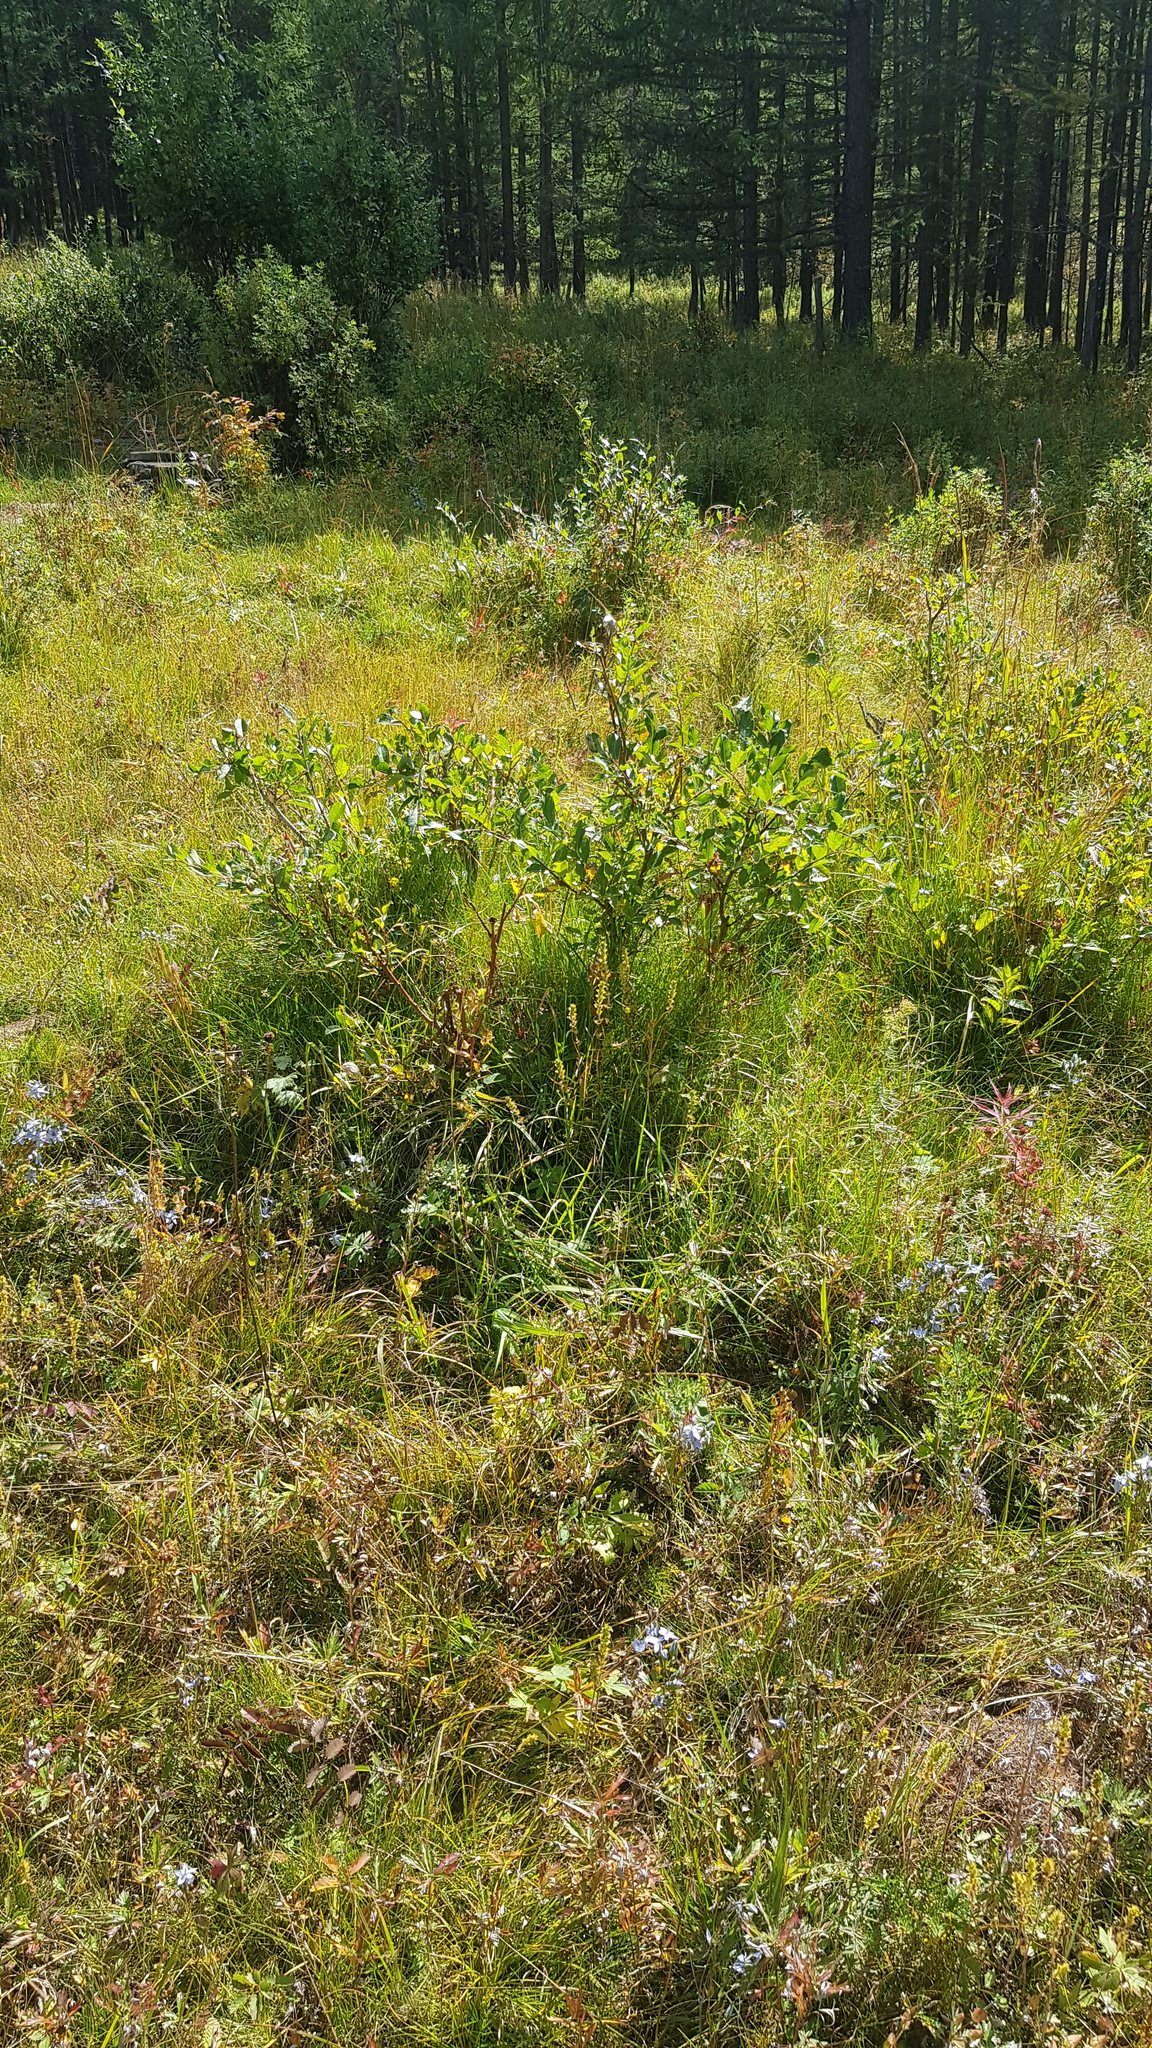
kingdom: Plantae
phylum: Tracheophyta
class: Magnoliopsida
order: Gentianales
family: Gentianaceae
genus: Lomatogonium
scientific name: Lomatogonium carinthiacum
